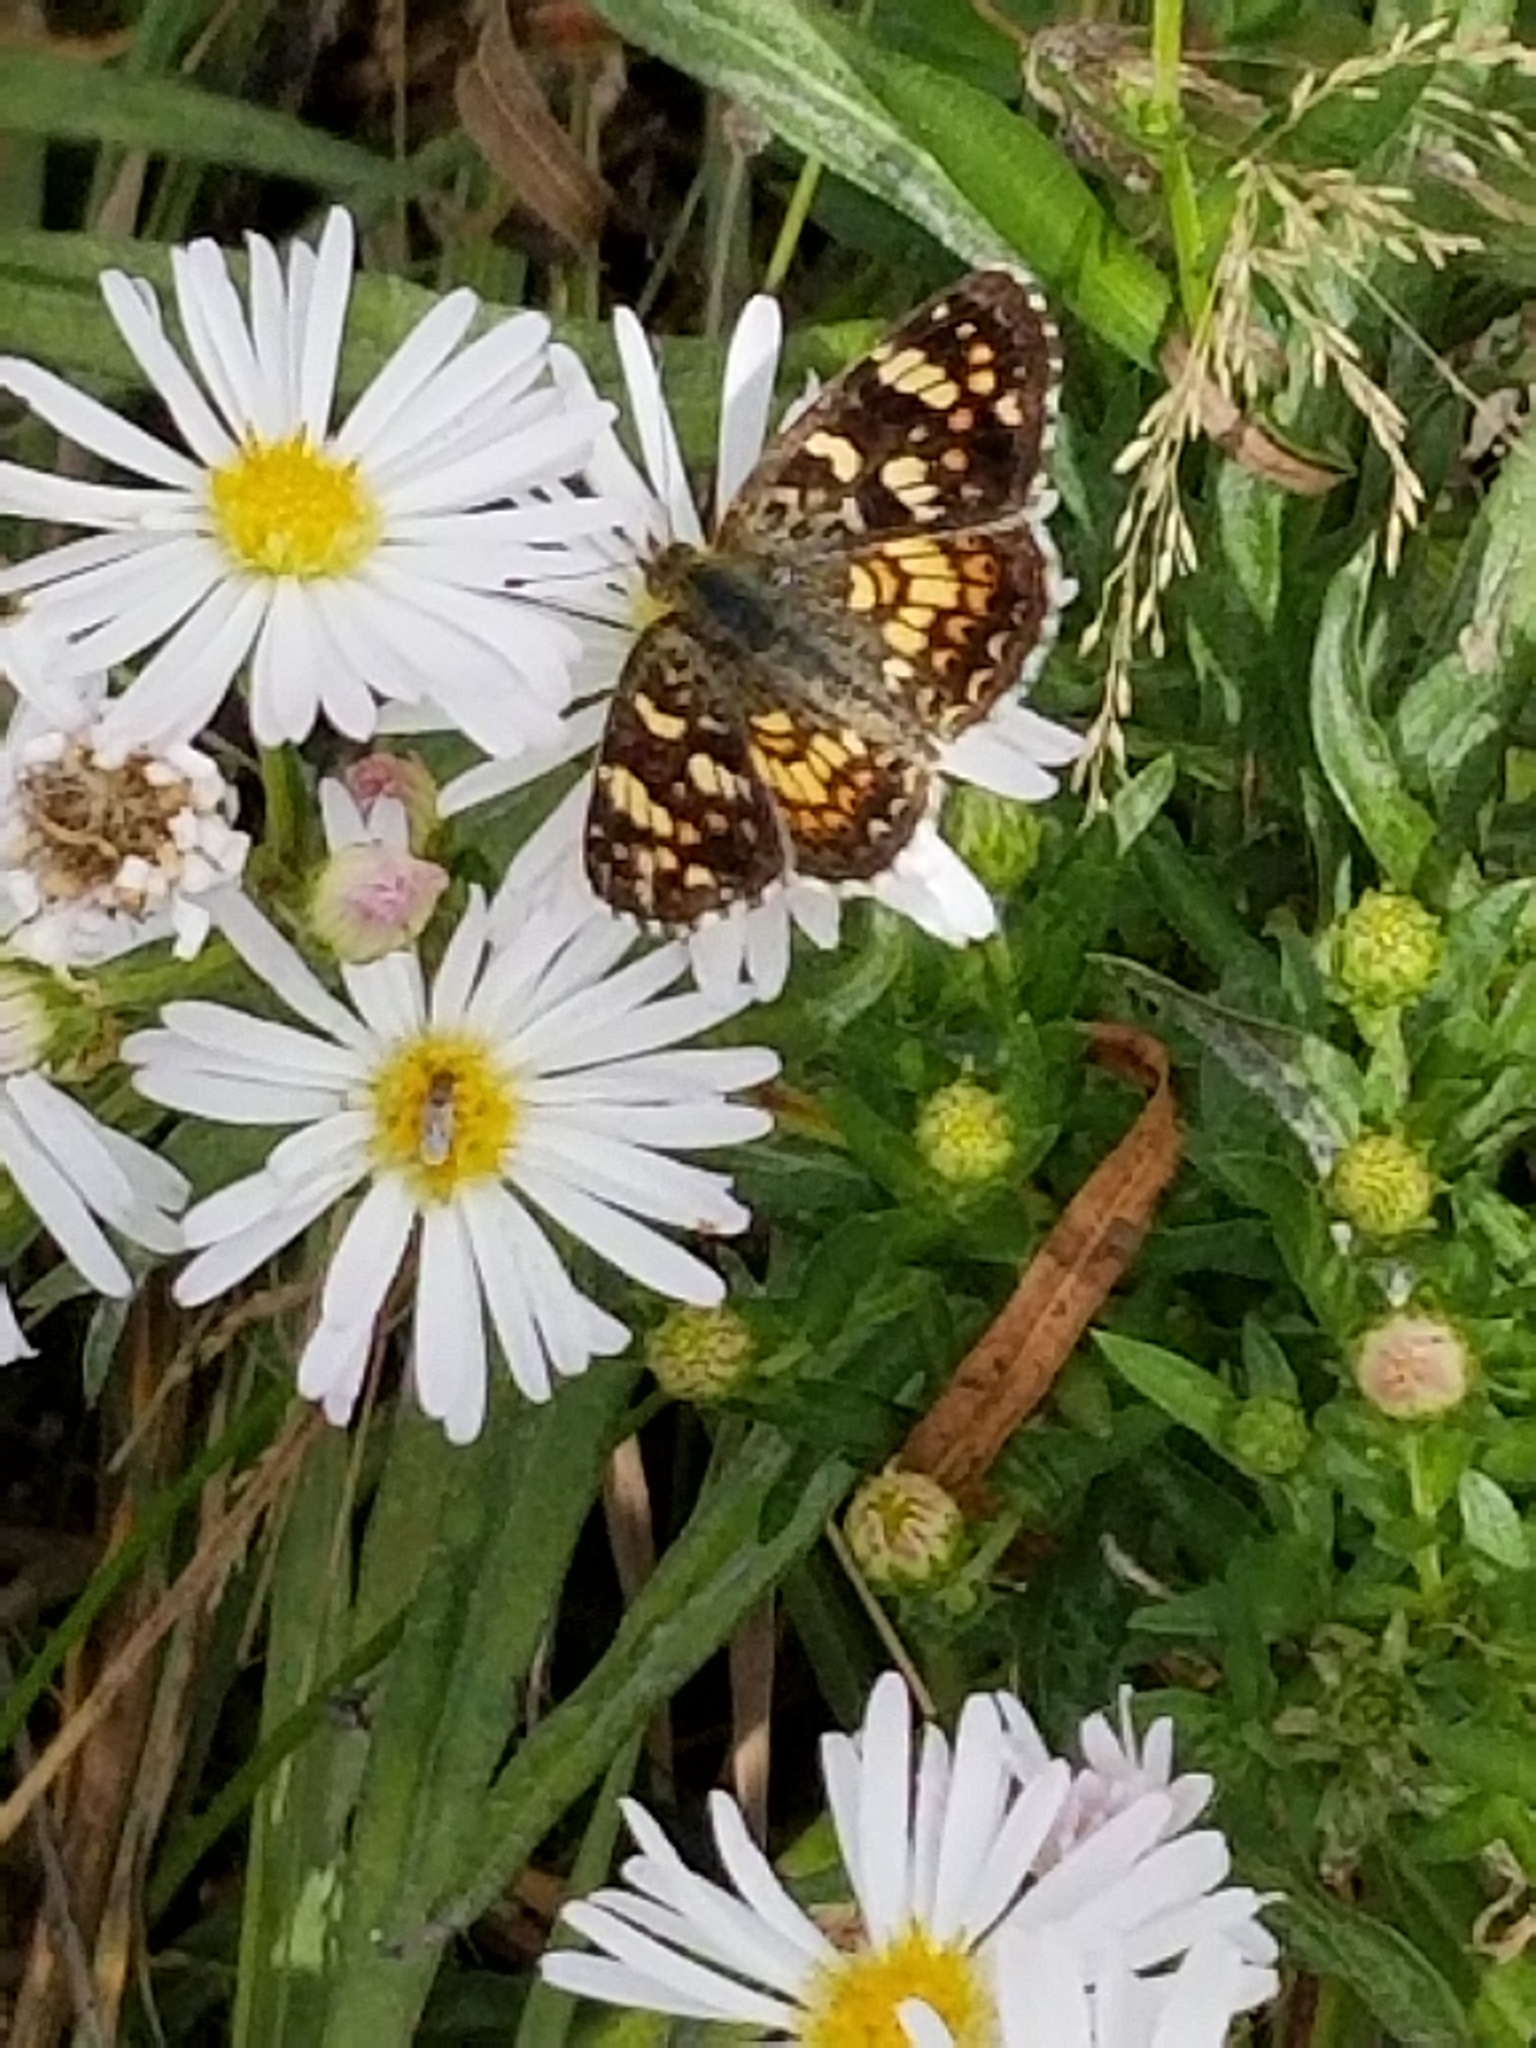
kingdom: Animalia
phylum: Arthropoda
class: Insecta
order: Lepidoptera
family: Nymphalidae
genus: Phyciodes
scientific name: Phyciodes tharos
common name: Pearl crescent
